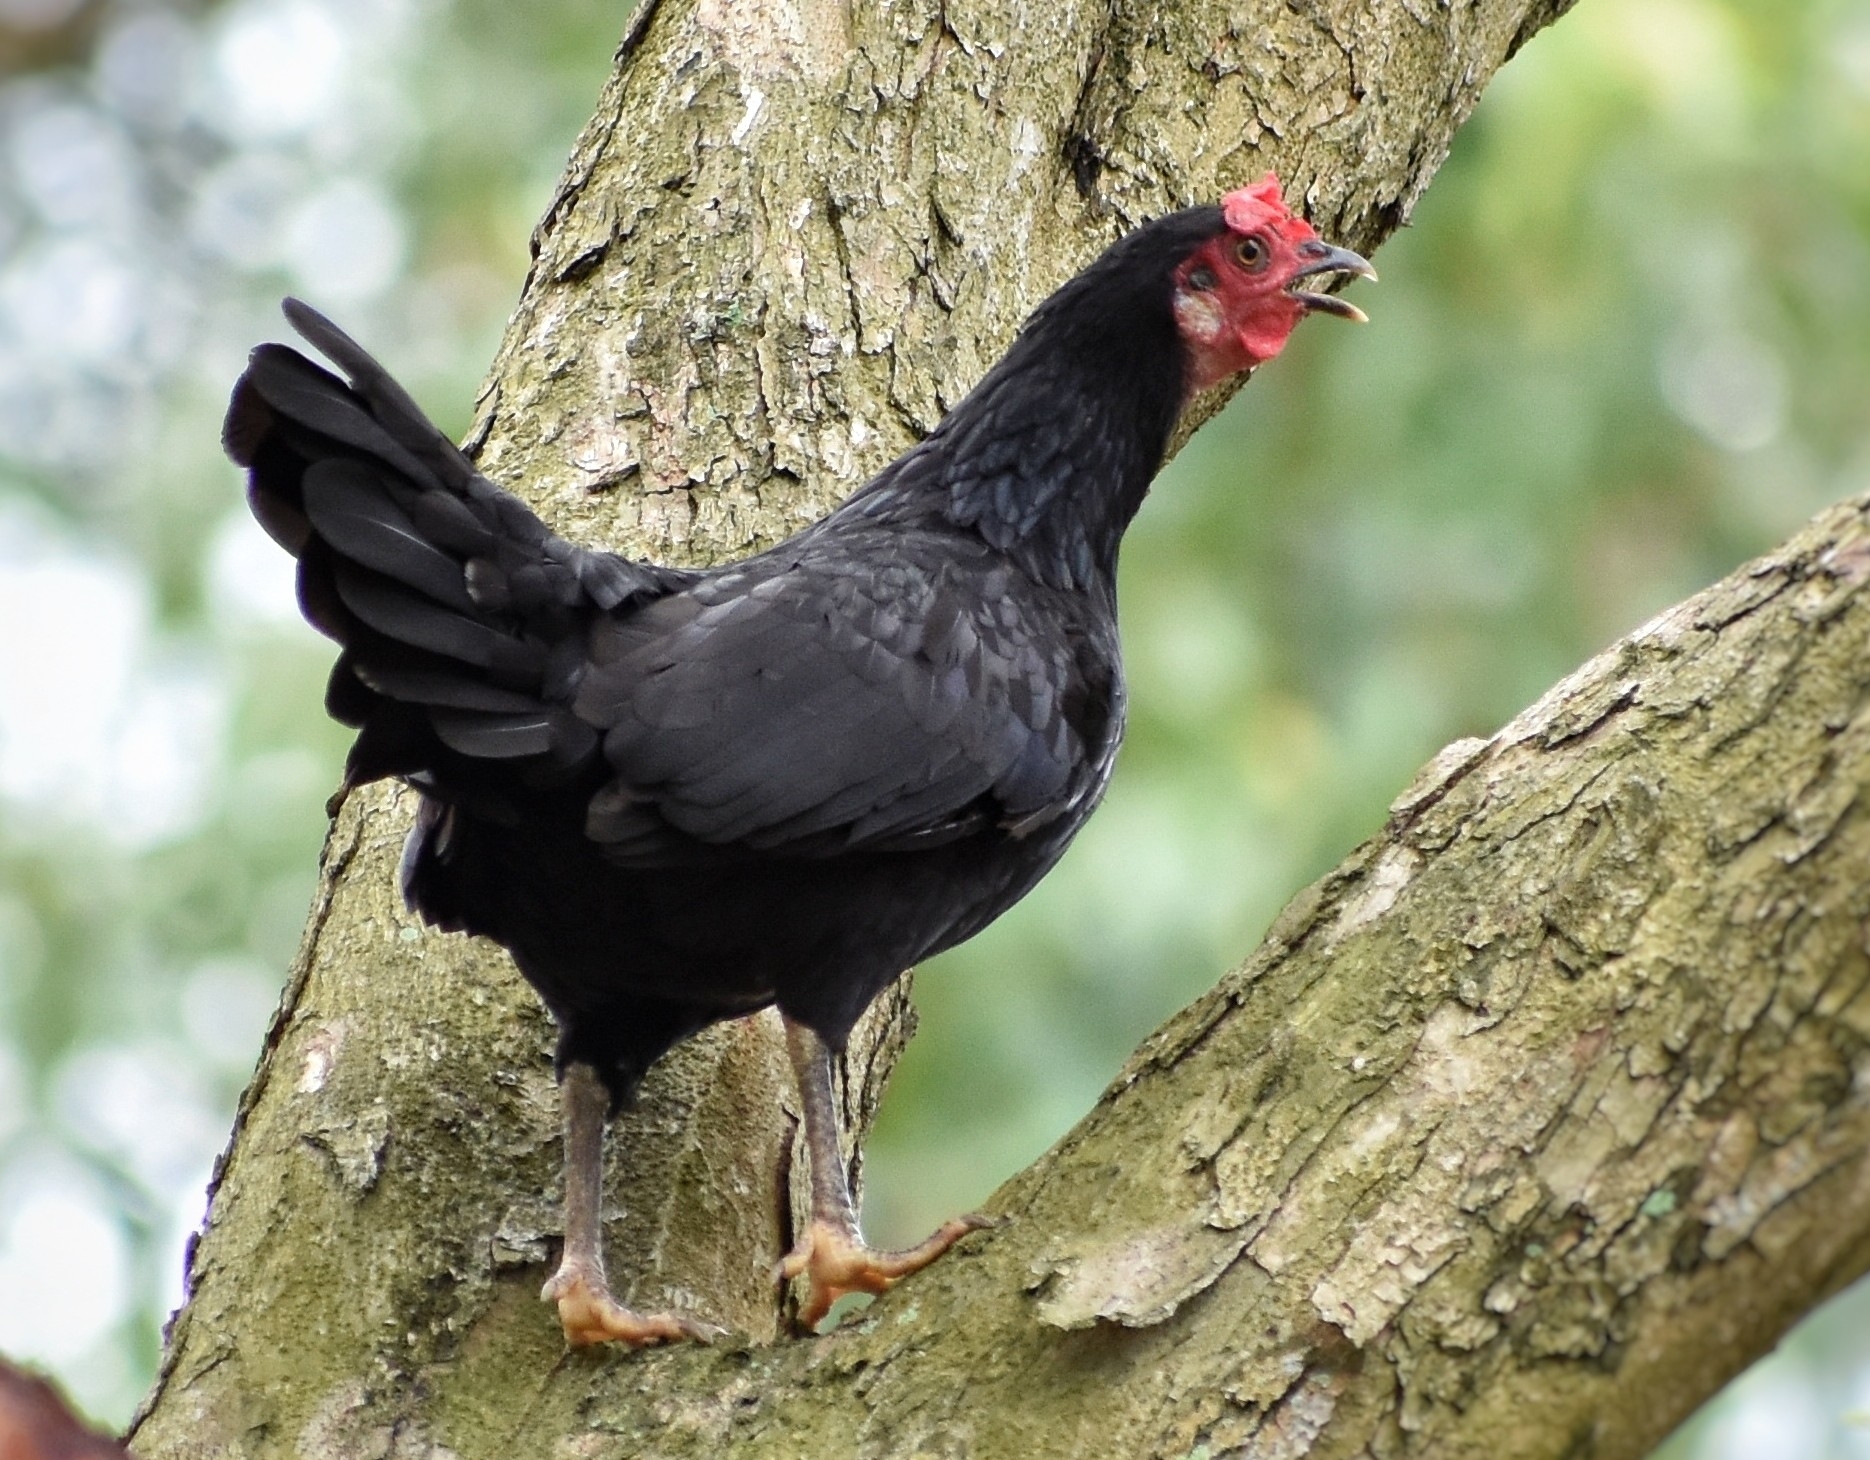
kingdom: Animalia
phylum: Chordata
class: Aves
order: Galliformes
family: Phasianidae
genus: Gallus
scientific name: Gallus gallus
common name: Red junglefowl
